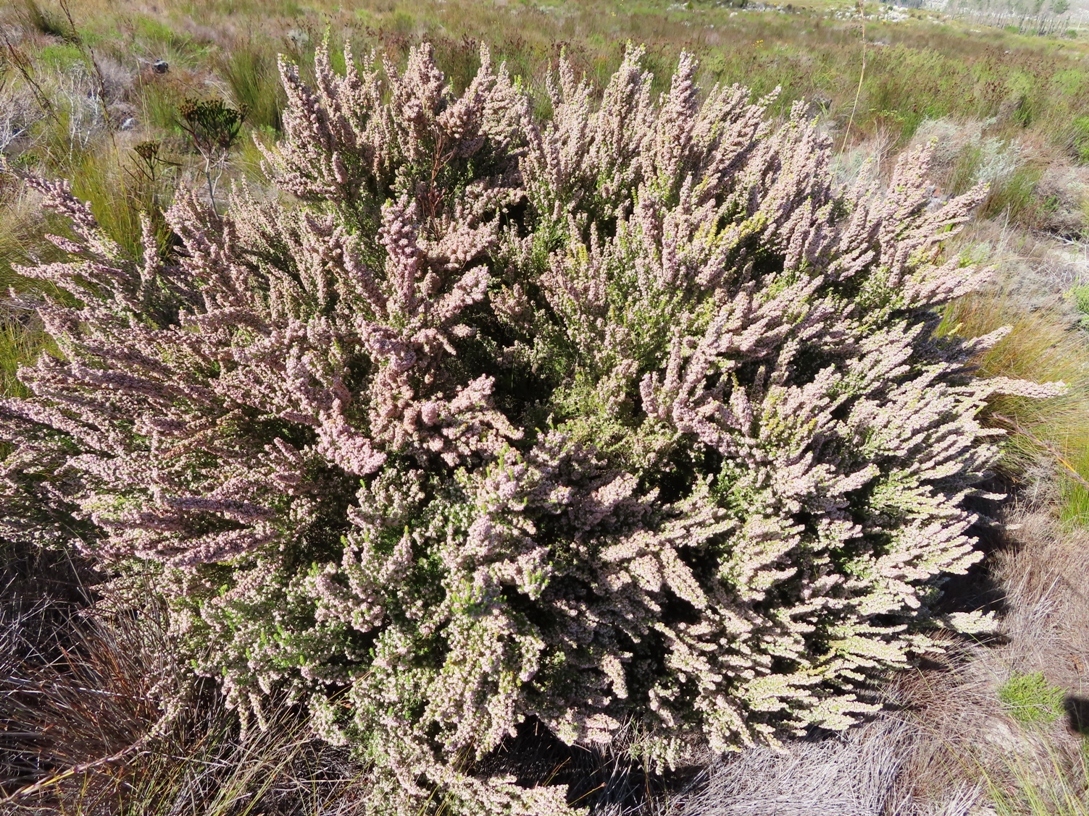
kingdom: Plantae
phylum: Tracheophyta
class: Magnoliopsida
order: Ericales
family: Ericaceae
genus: Erica
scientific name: Erica hispidula
